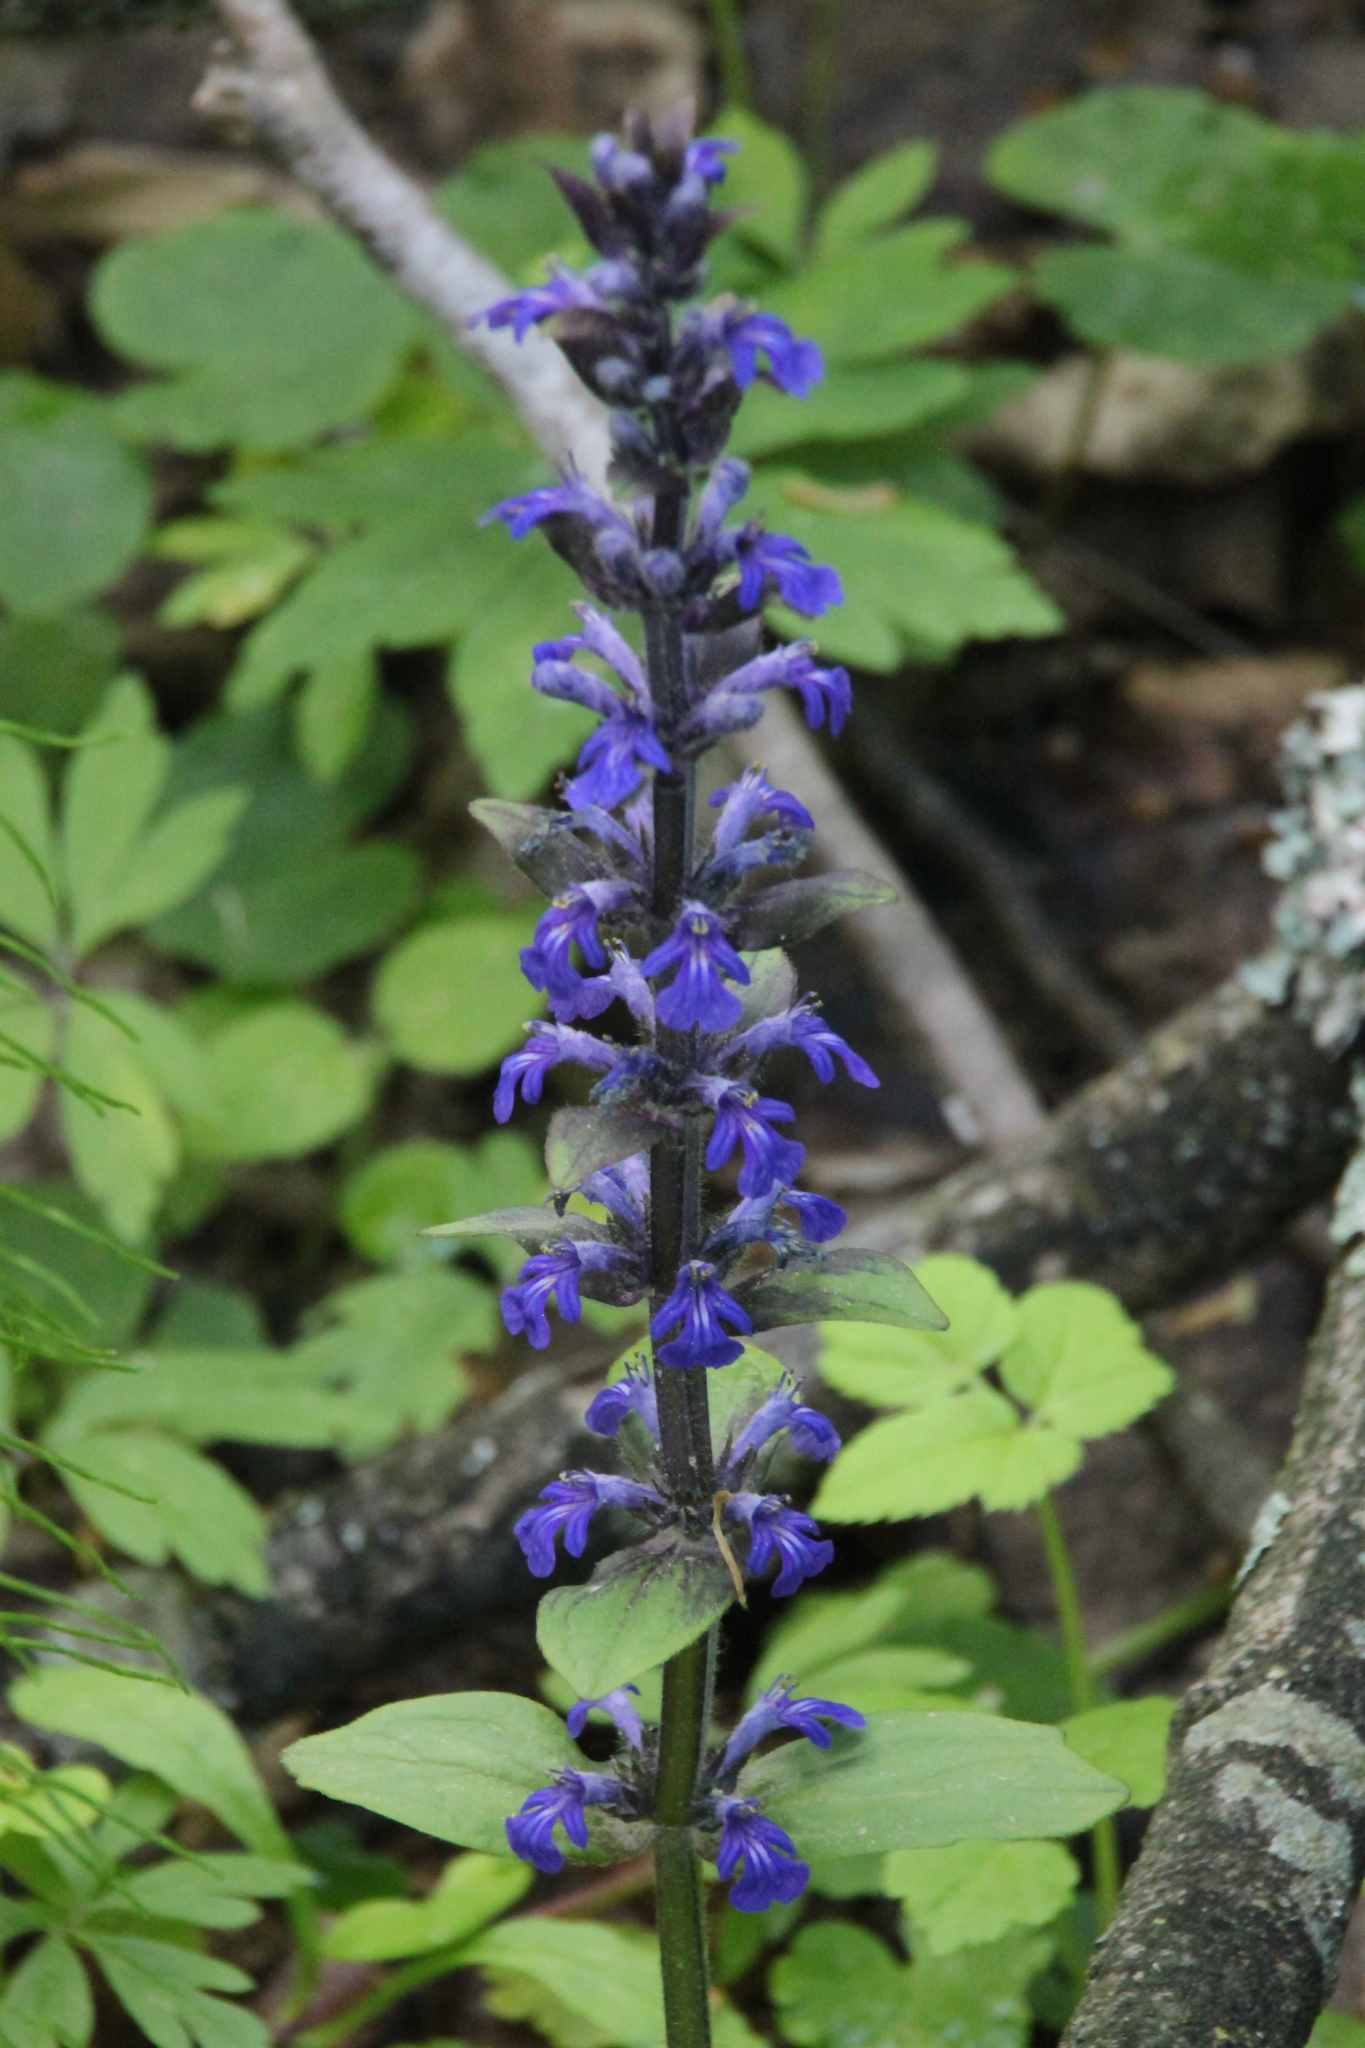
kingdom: Plantae
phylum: Tracheophyta
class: Magnoliopsida
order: Lamiales
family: Lamiaceae
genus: Ajuga
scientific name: Ajuga reptans
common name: Bugle
